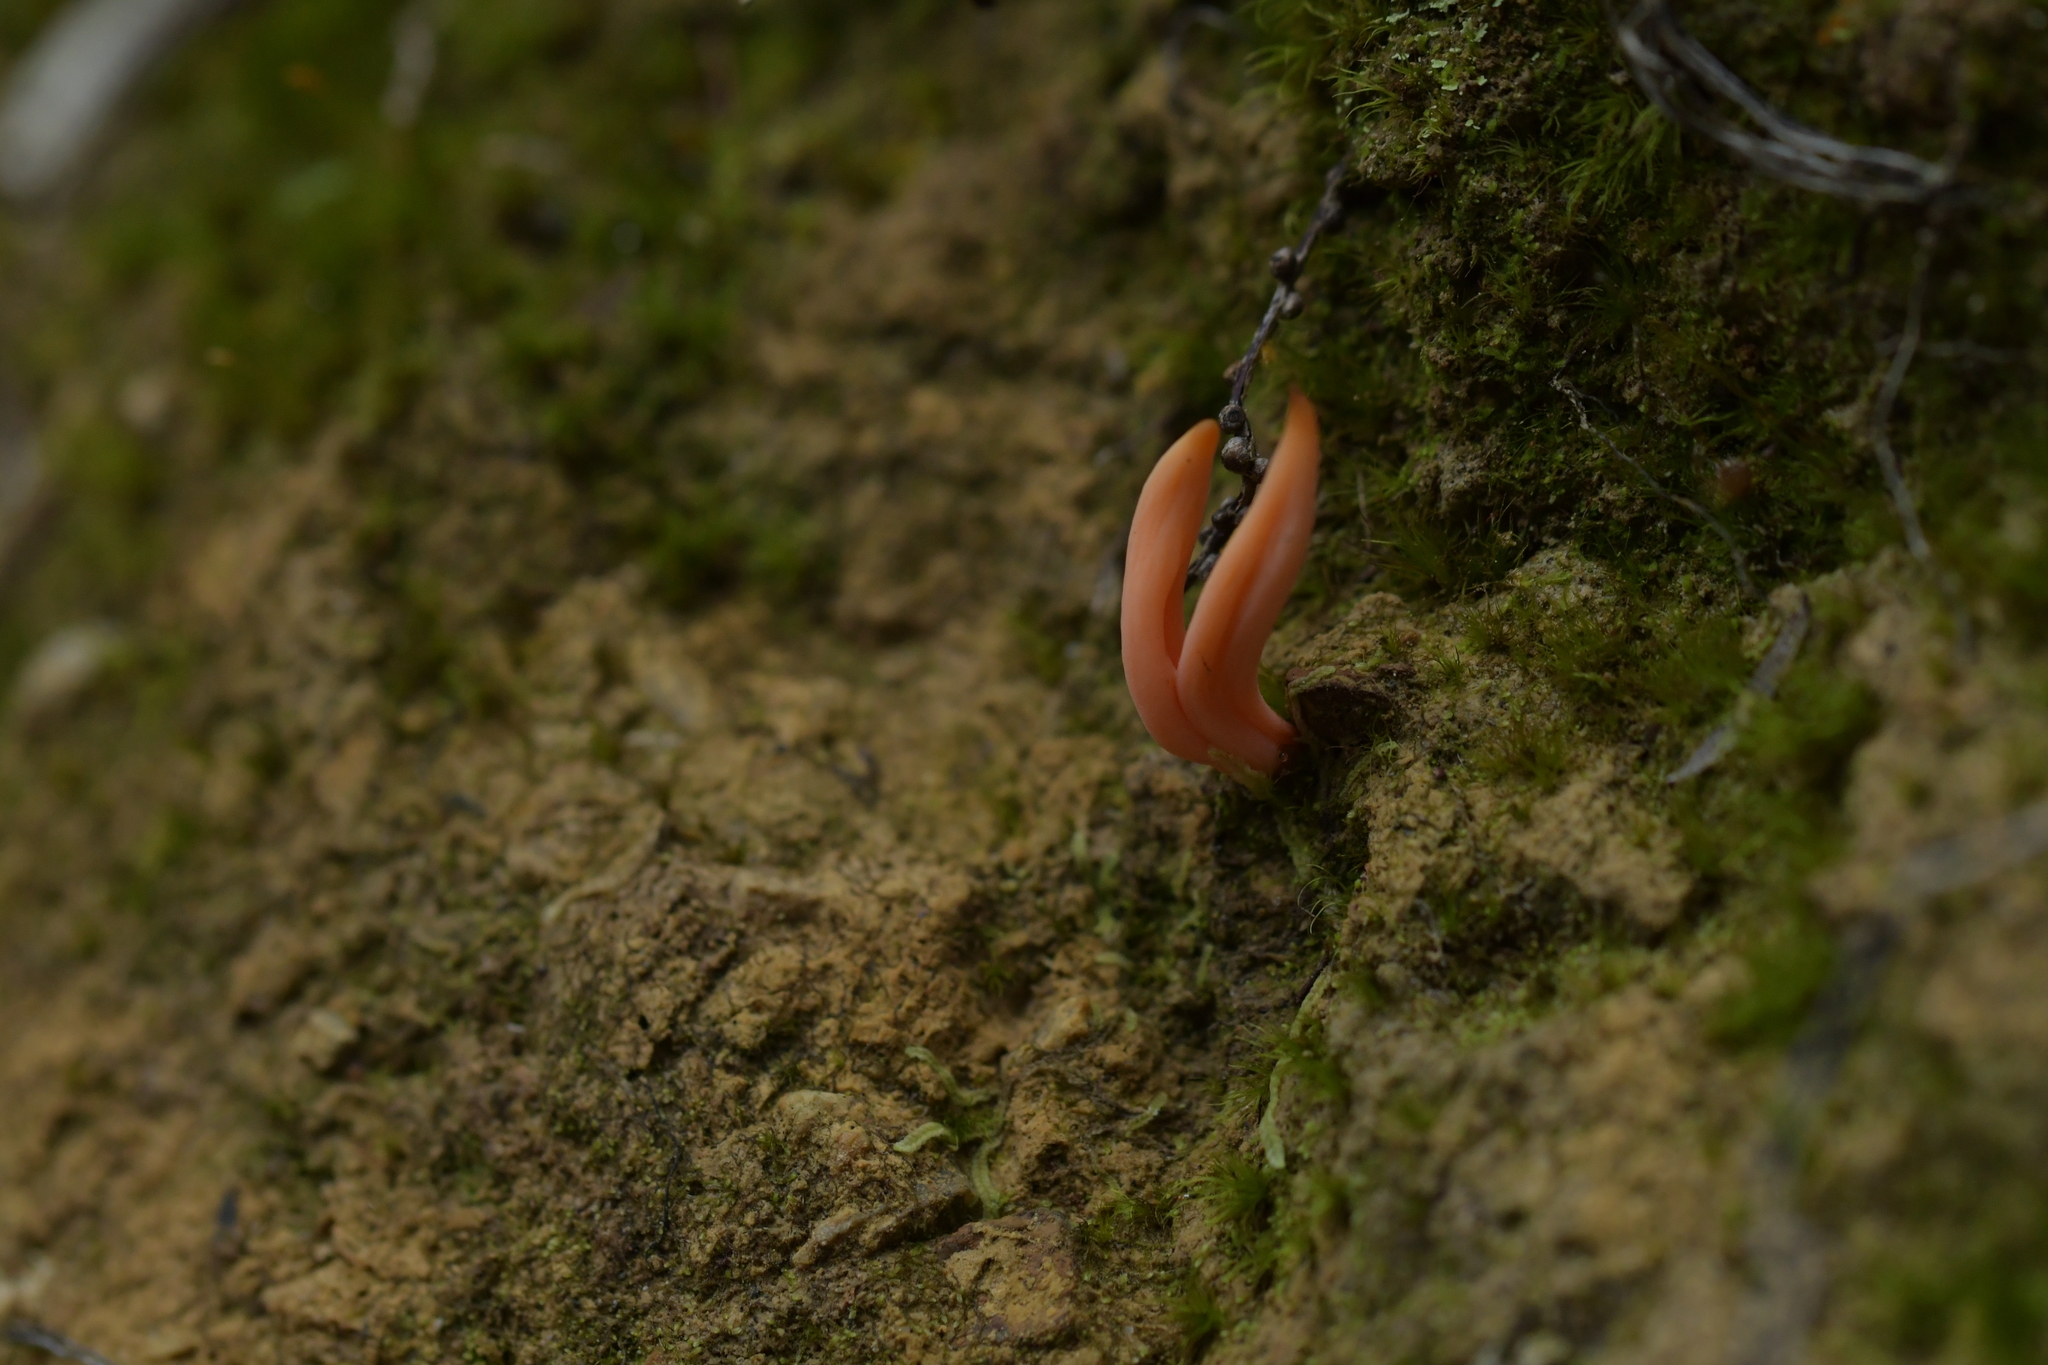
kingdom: Fungi
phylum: Basidiomycota
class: Agaricomycetes
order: Agaricales
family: Clavariaceae
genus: Clavulinopsis
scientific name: Clavulinopsis sulcata
